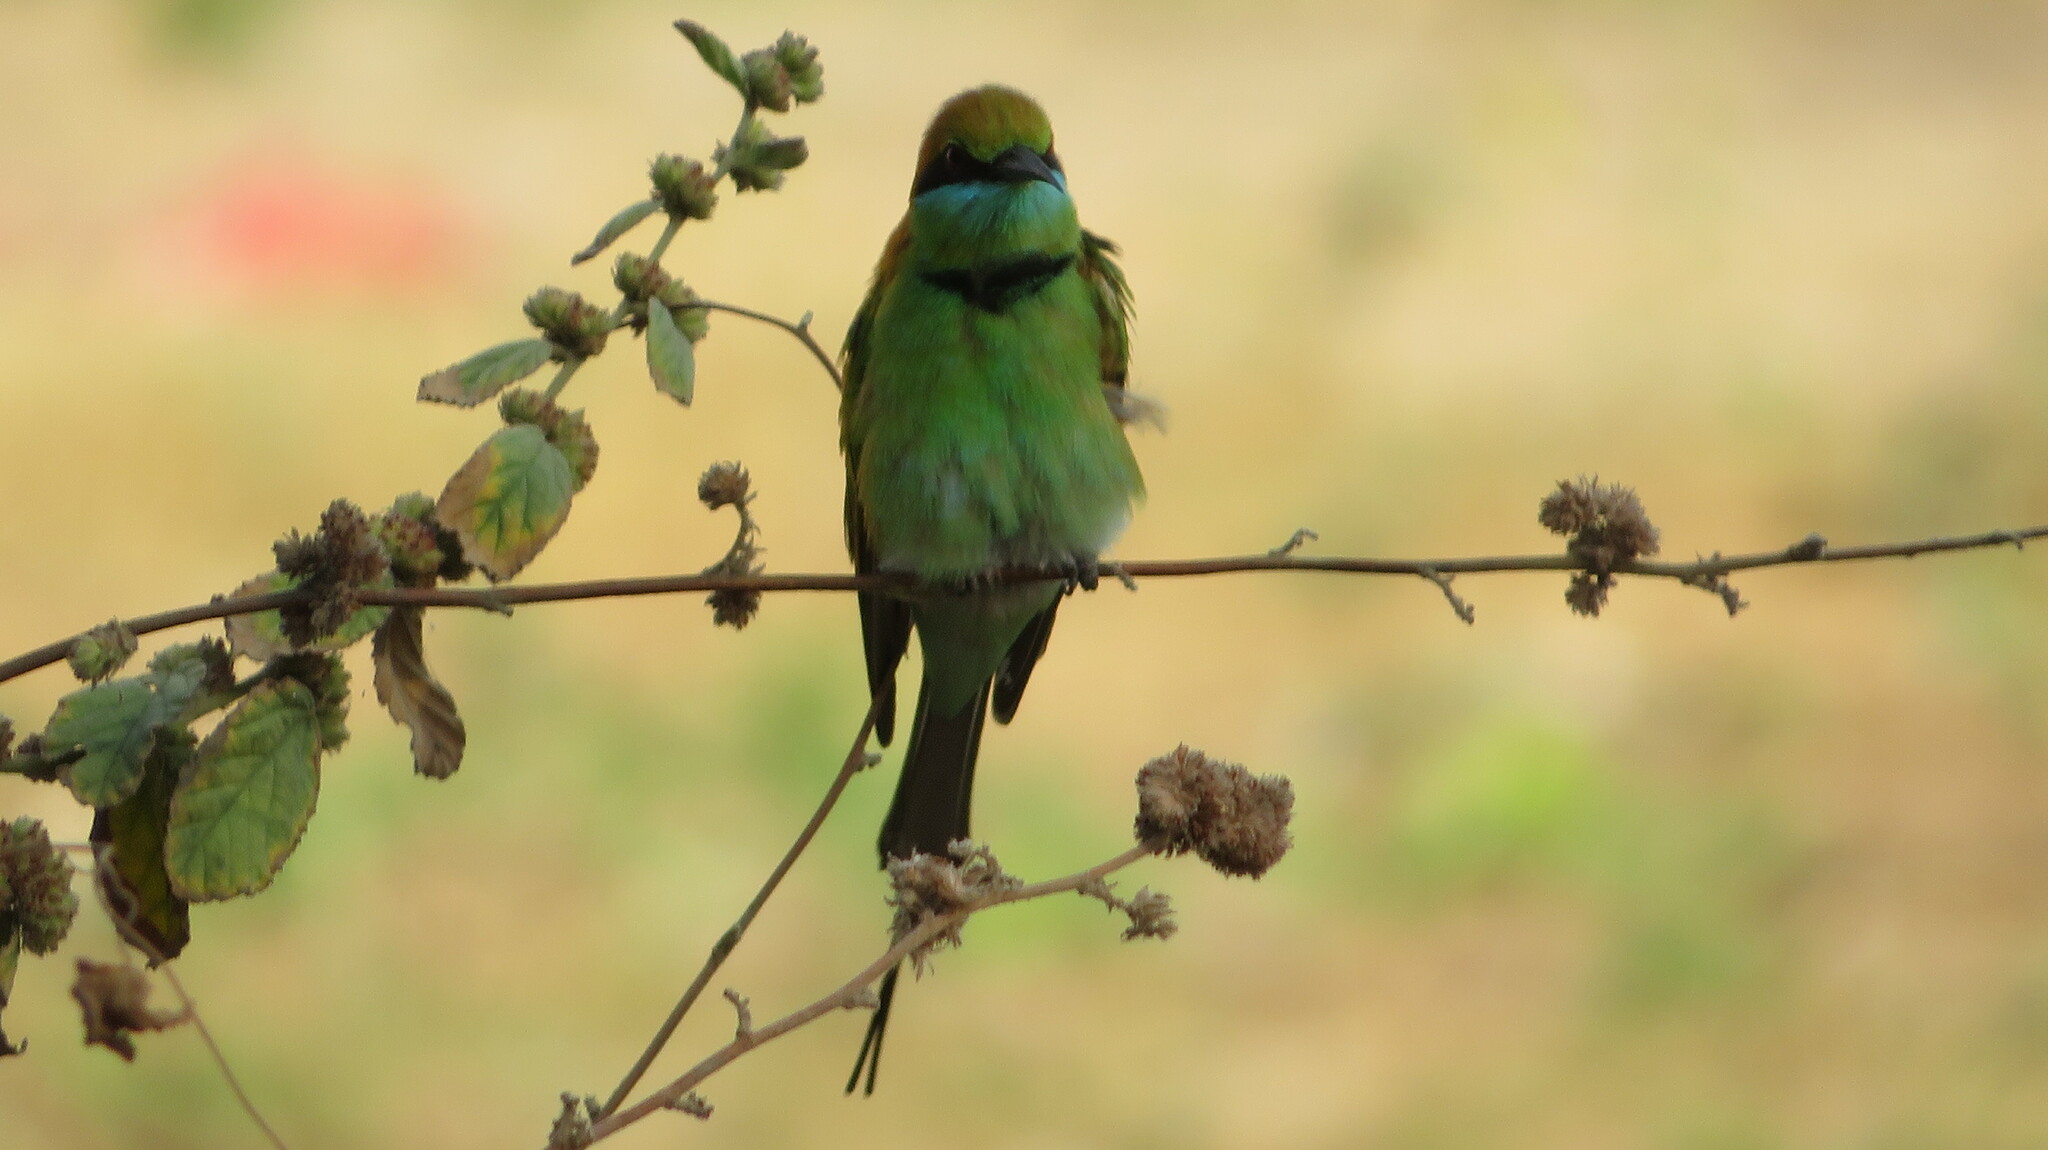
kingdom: Animalia
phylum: Chordata
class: Aves
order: Coraciiformes
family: Meropidae
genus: Merops
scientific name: Merops orientalis
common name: Green bee-eater
